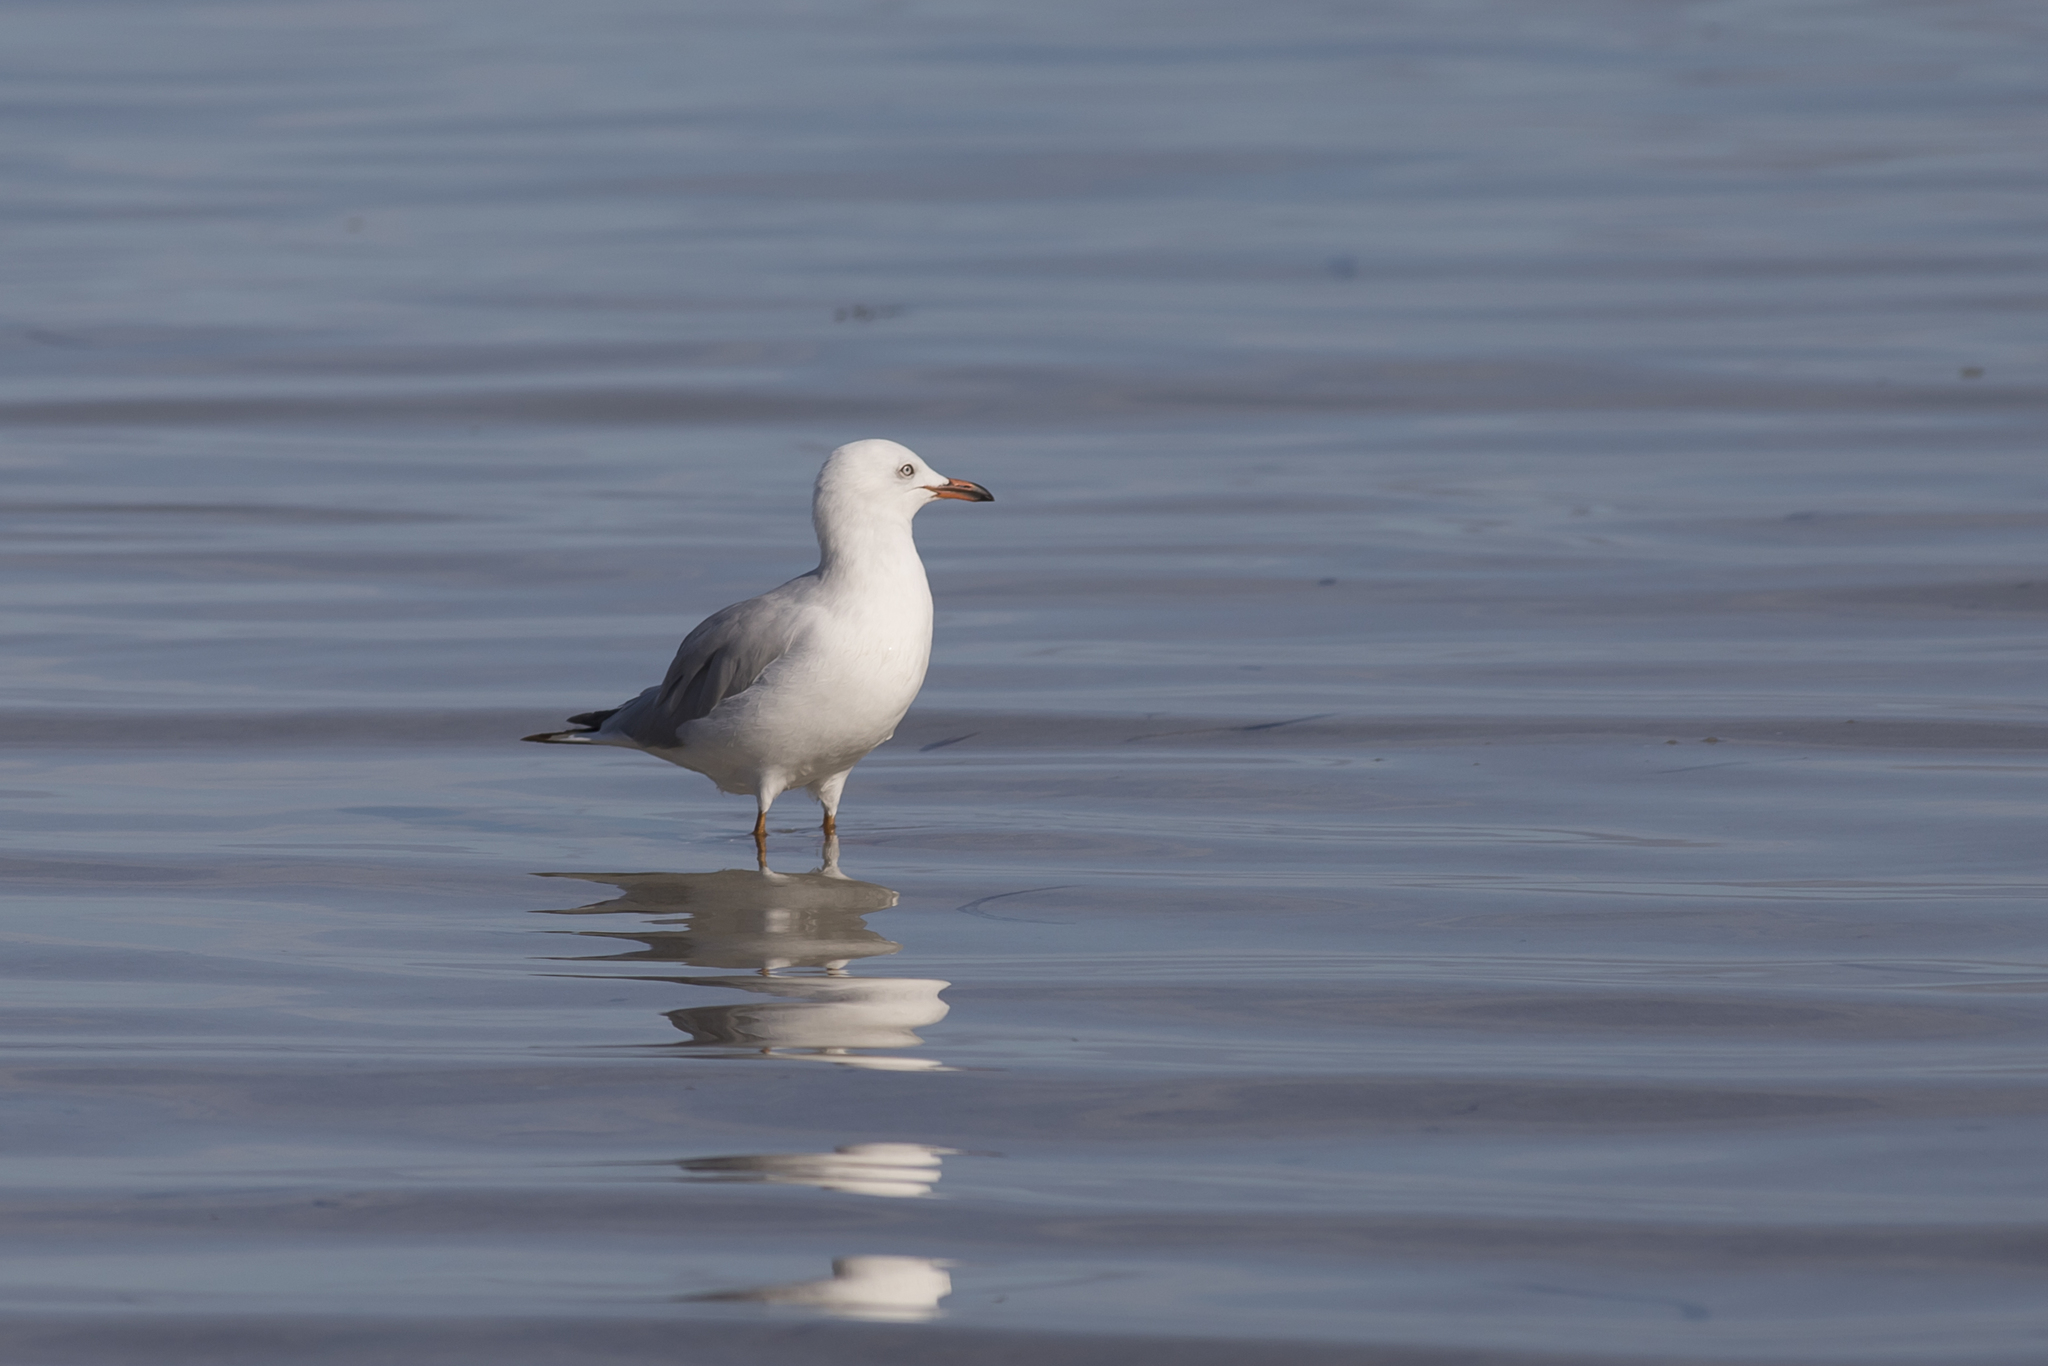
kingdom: Animalia
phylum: Chordata
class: Aves
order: Charadriiformes
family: Laridae
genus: Chroicocephalus
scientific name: Chroicocephalus novaehollandiae
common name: Silver gull
